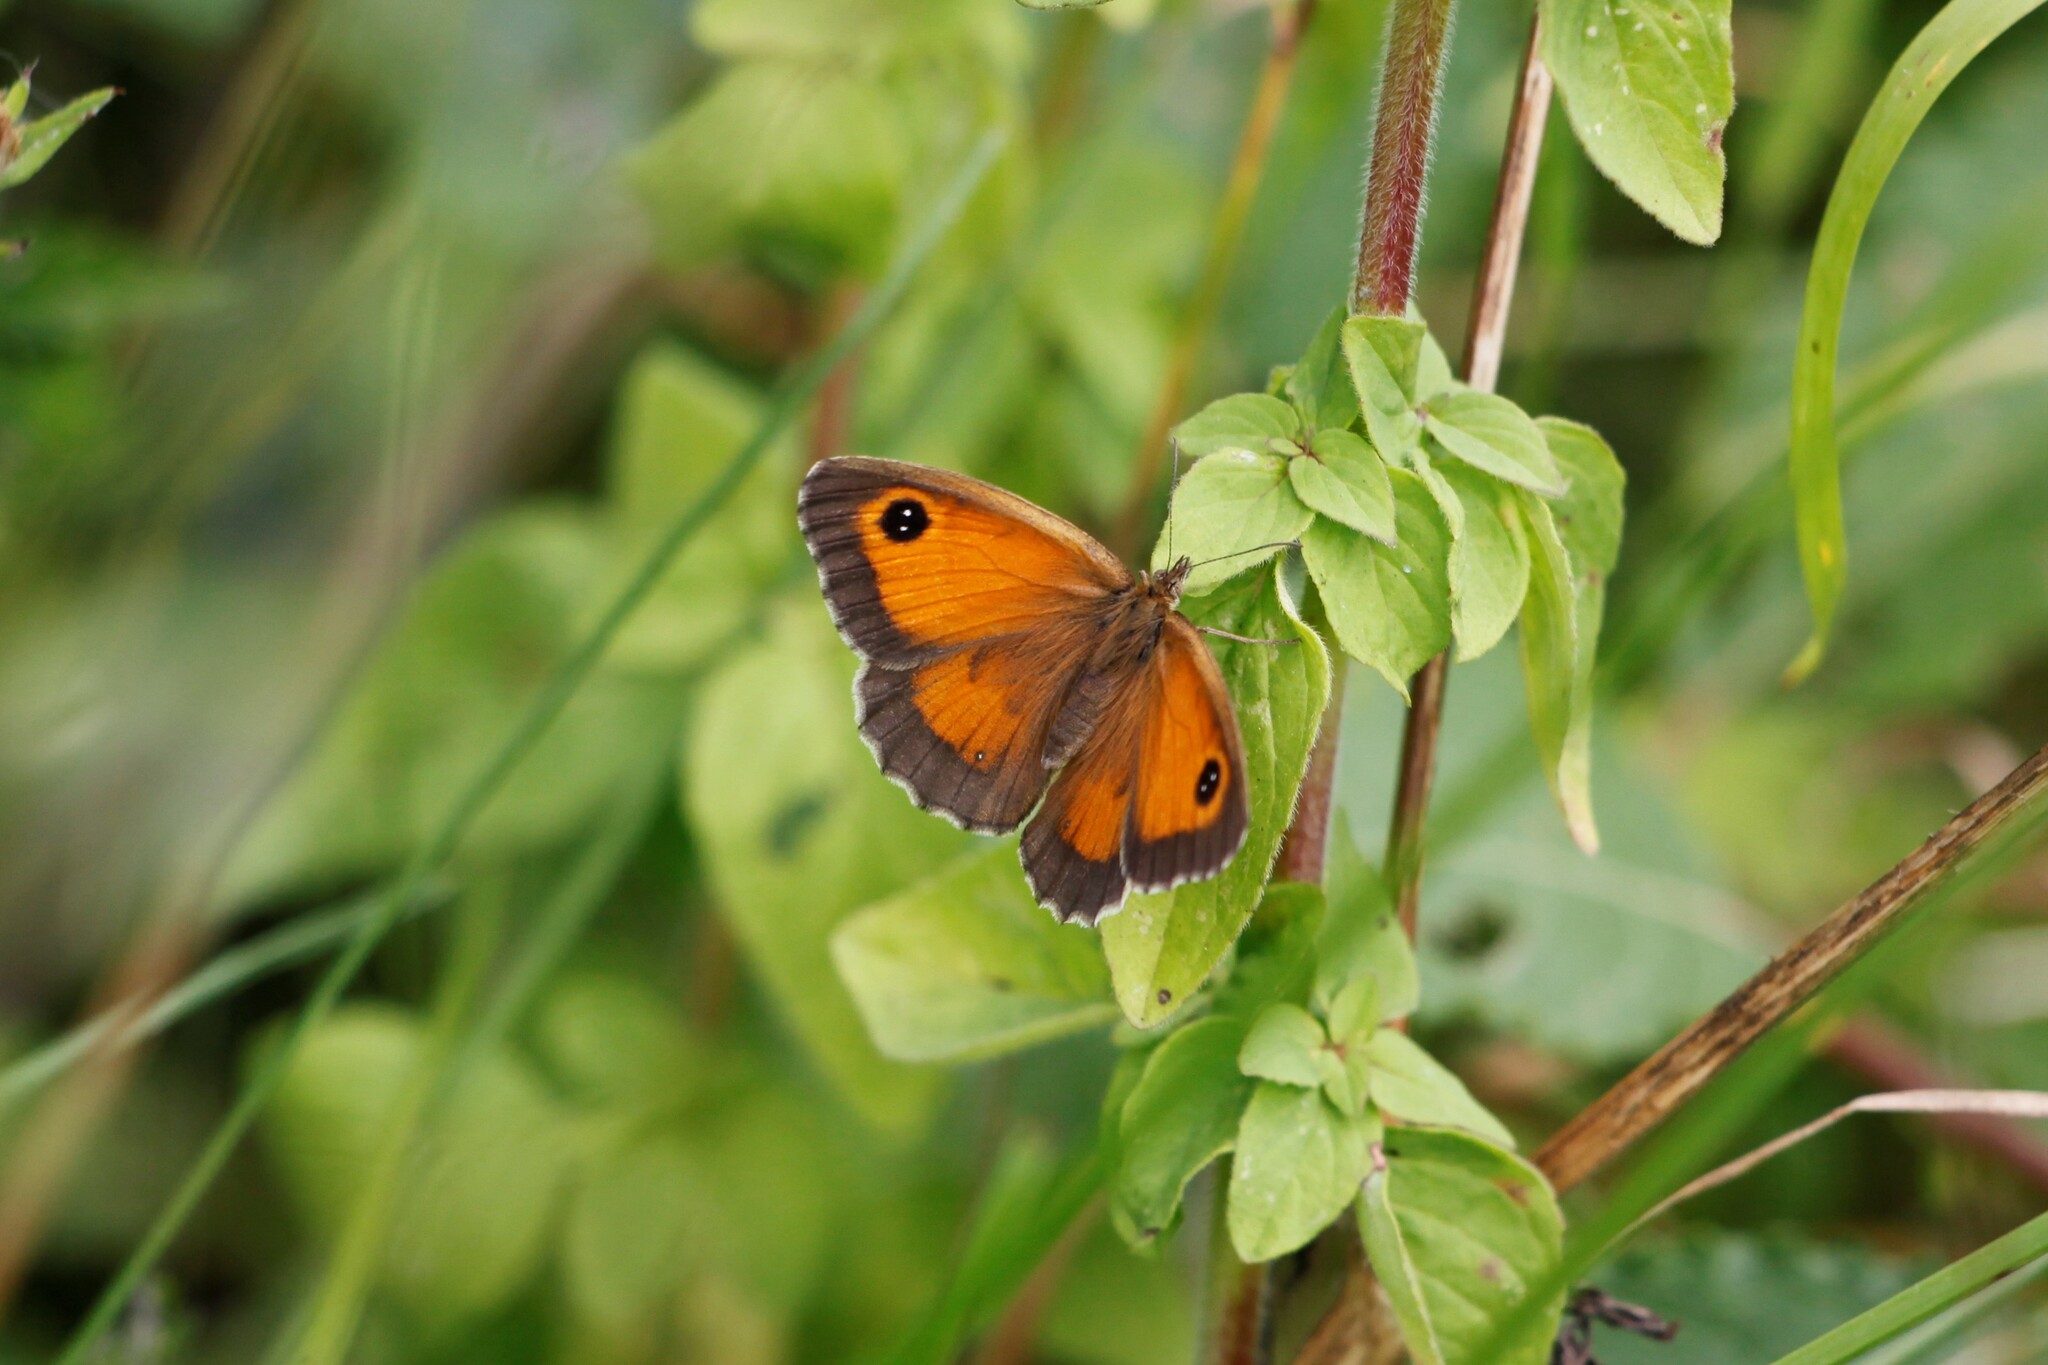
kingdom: Animalia
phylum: Arthropoda
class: Insecta
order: Lepidoptera
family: Nymphalidae
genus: Pyronia
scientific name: Pyronia tithonus
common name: Gatekeeper
